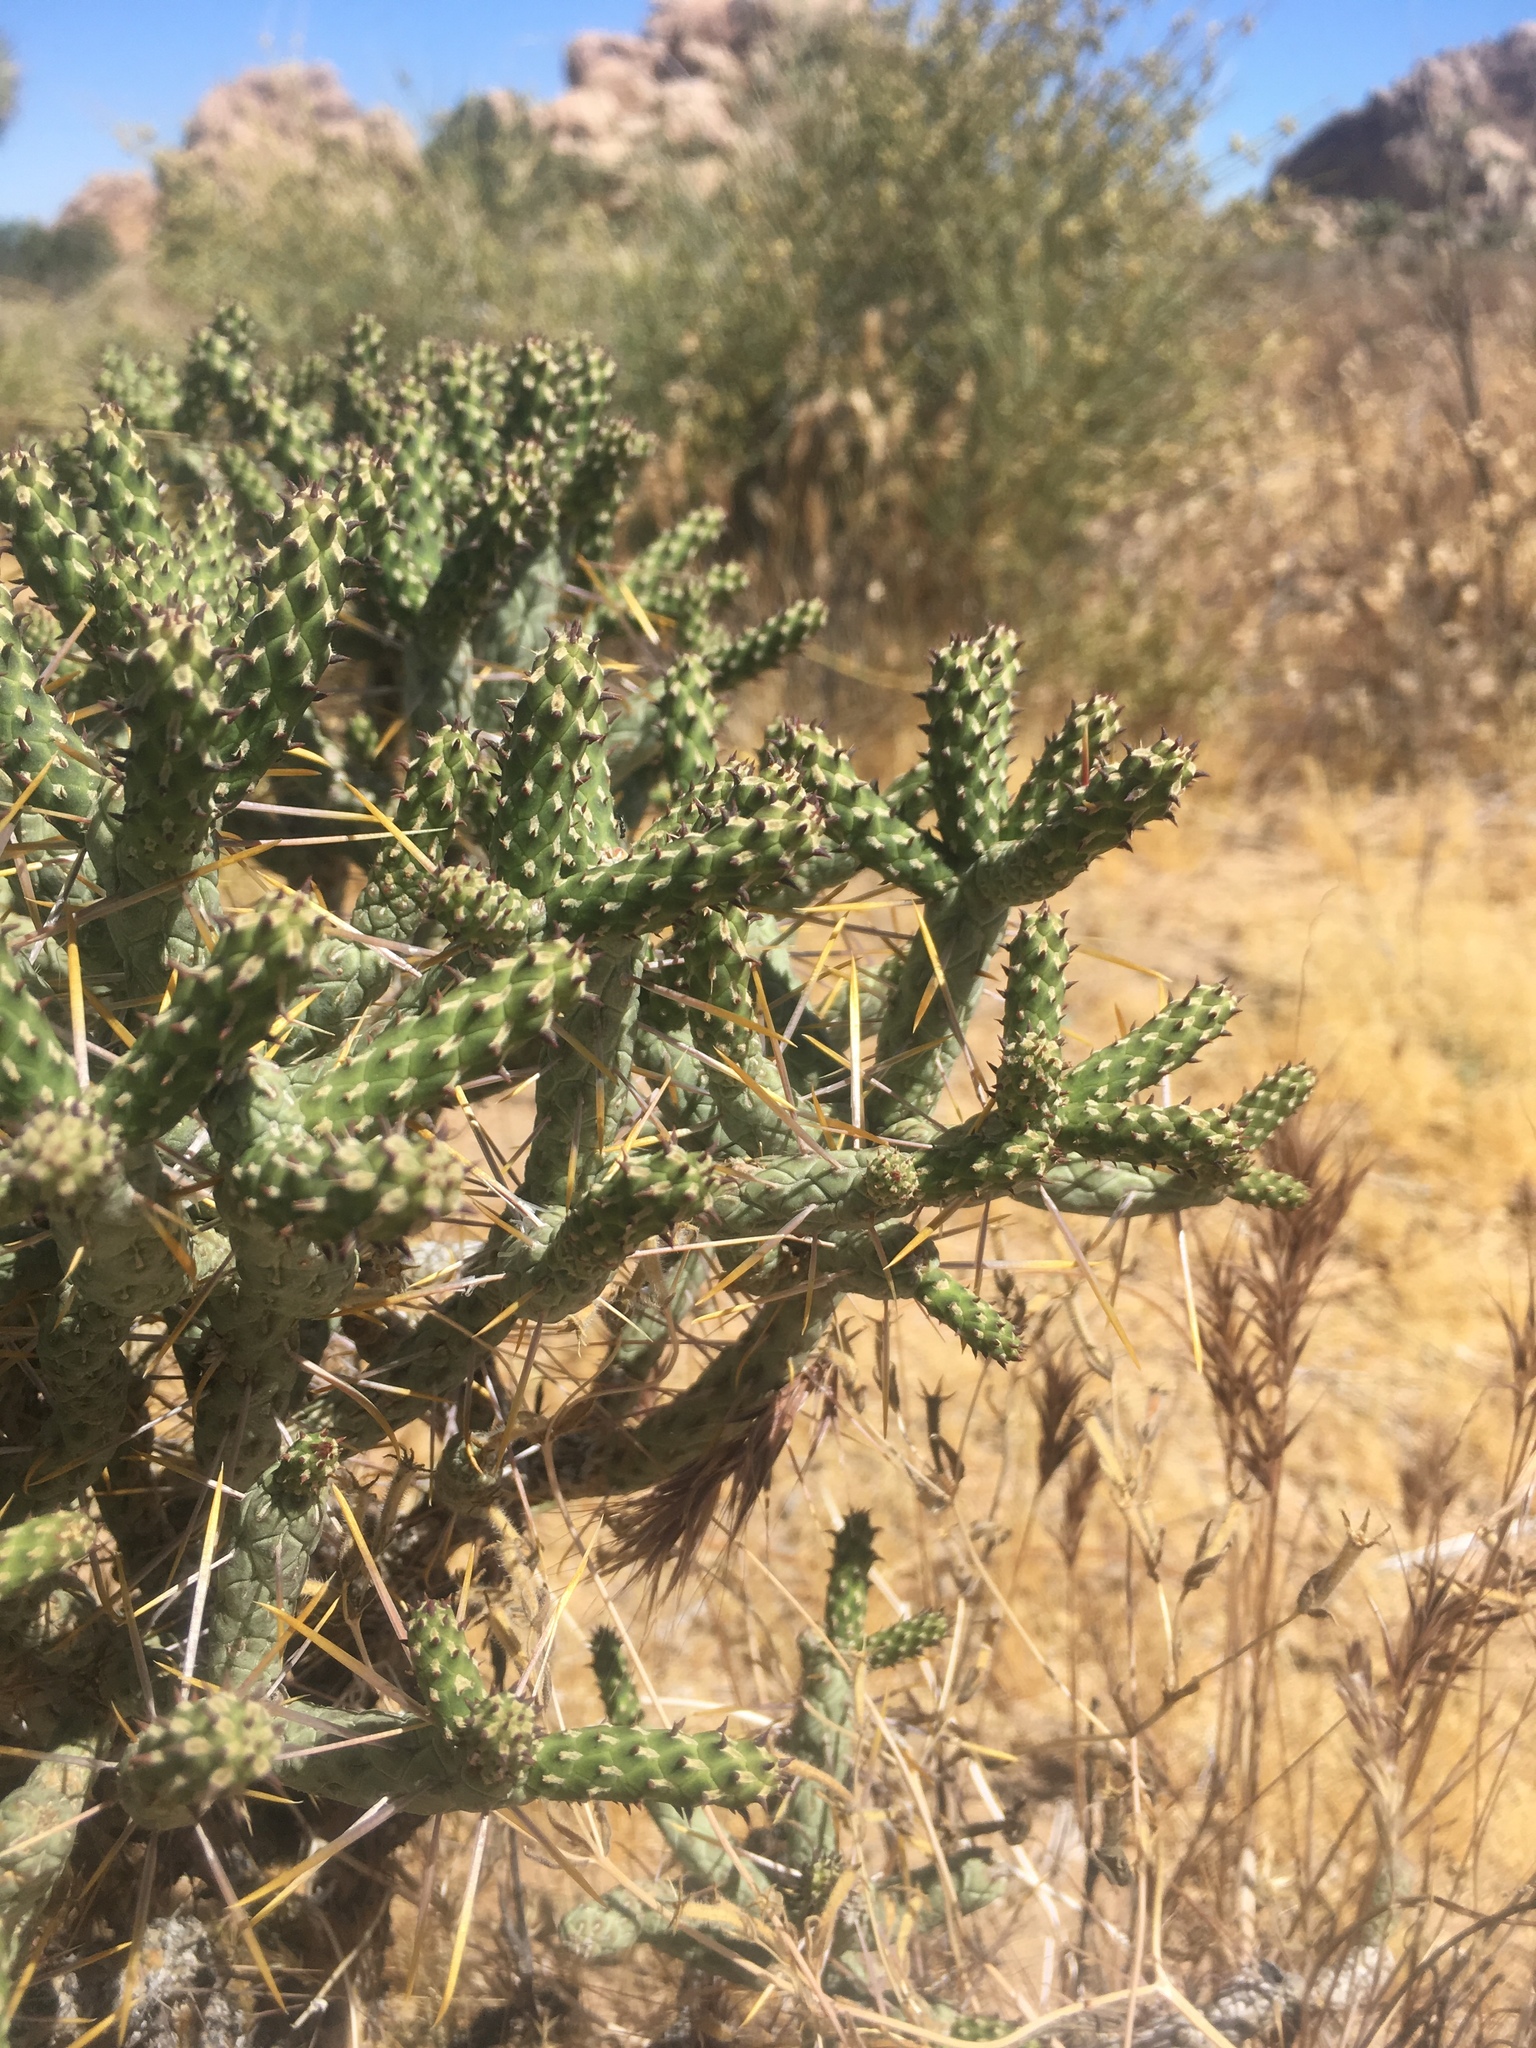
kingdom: Plantae
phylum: Tracheophyta
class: Magnoliopsida
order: Caryophyllales
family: Cactaceae
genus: Cylindropuntia
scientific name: Cylindropuntia ramosissima
